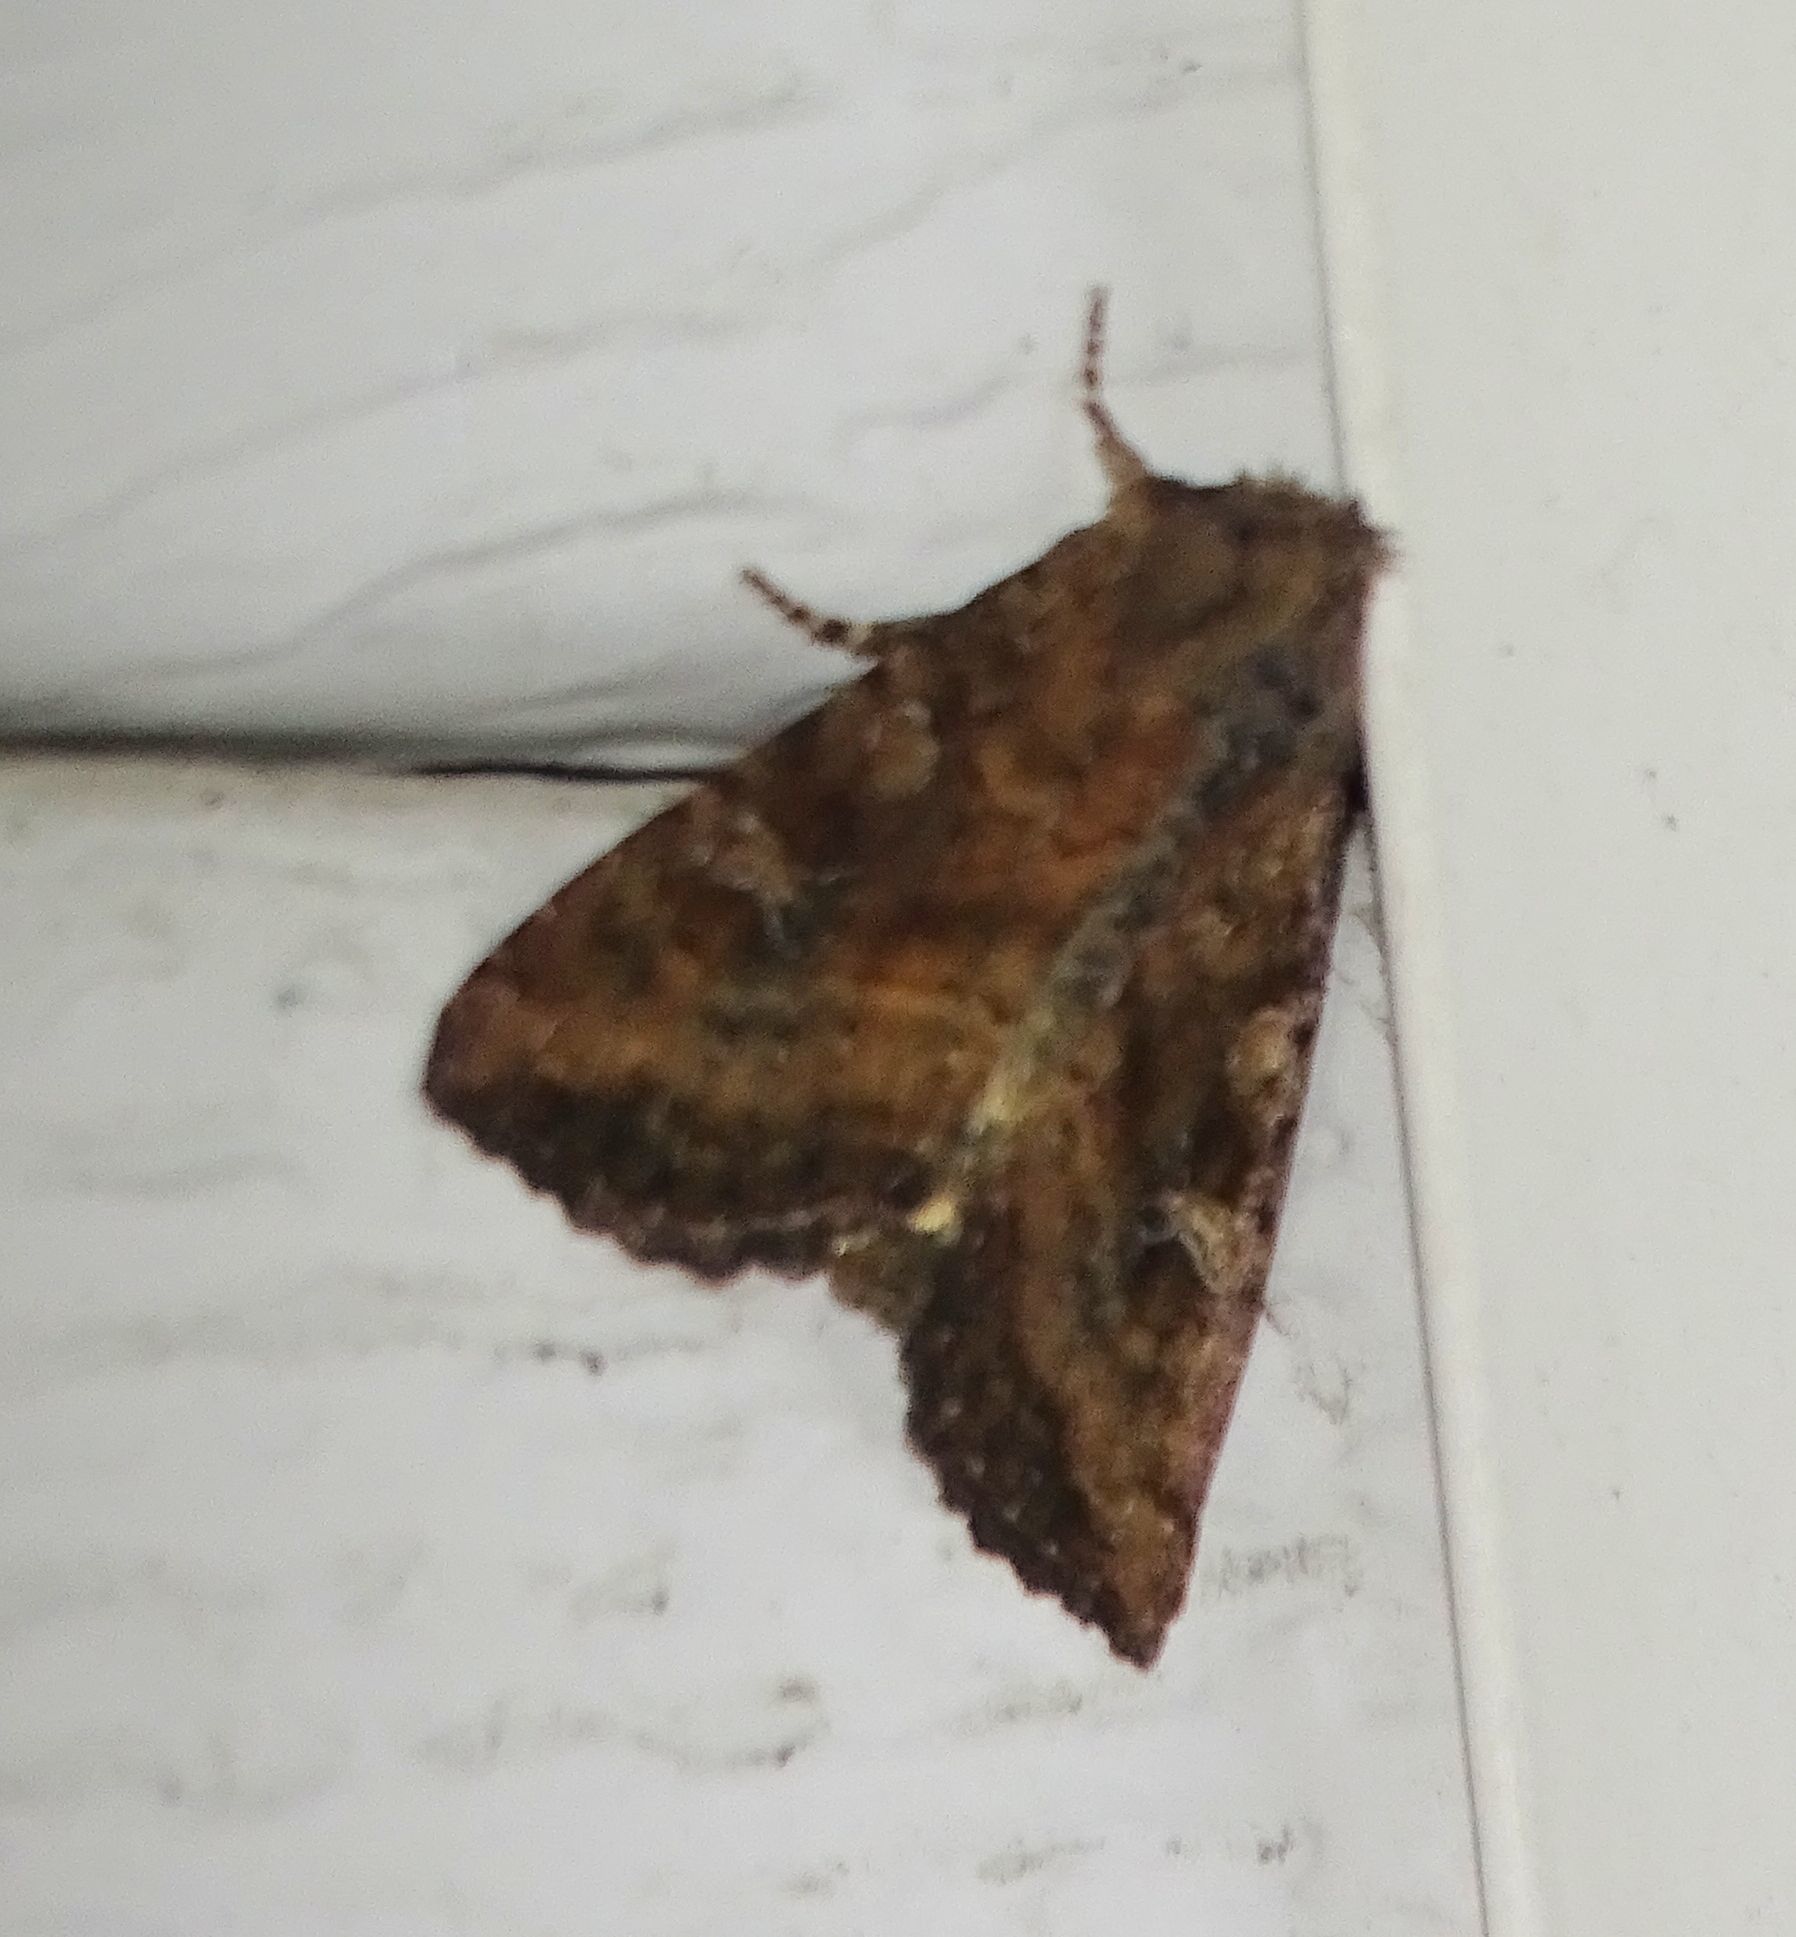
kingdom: Animalia
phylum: Arthropoda
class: Insecta
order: Lepidoptera
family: Noctuidae
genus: Loscopia
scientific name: Loscopia velata
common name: Veiled ear moth
